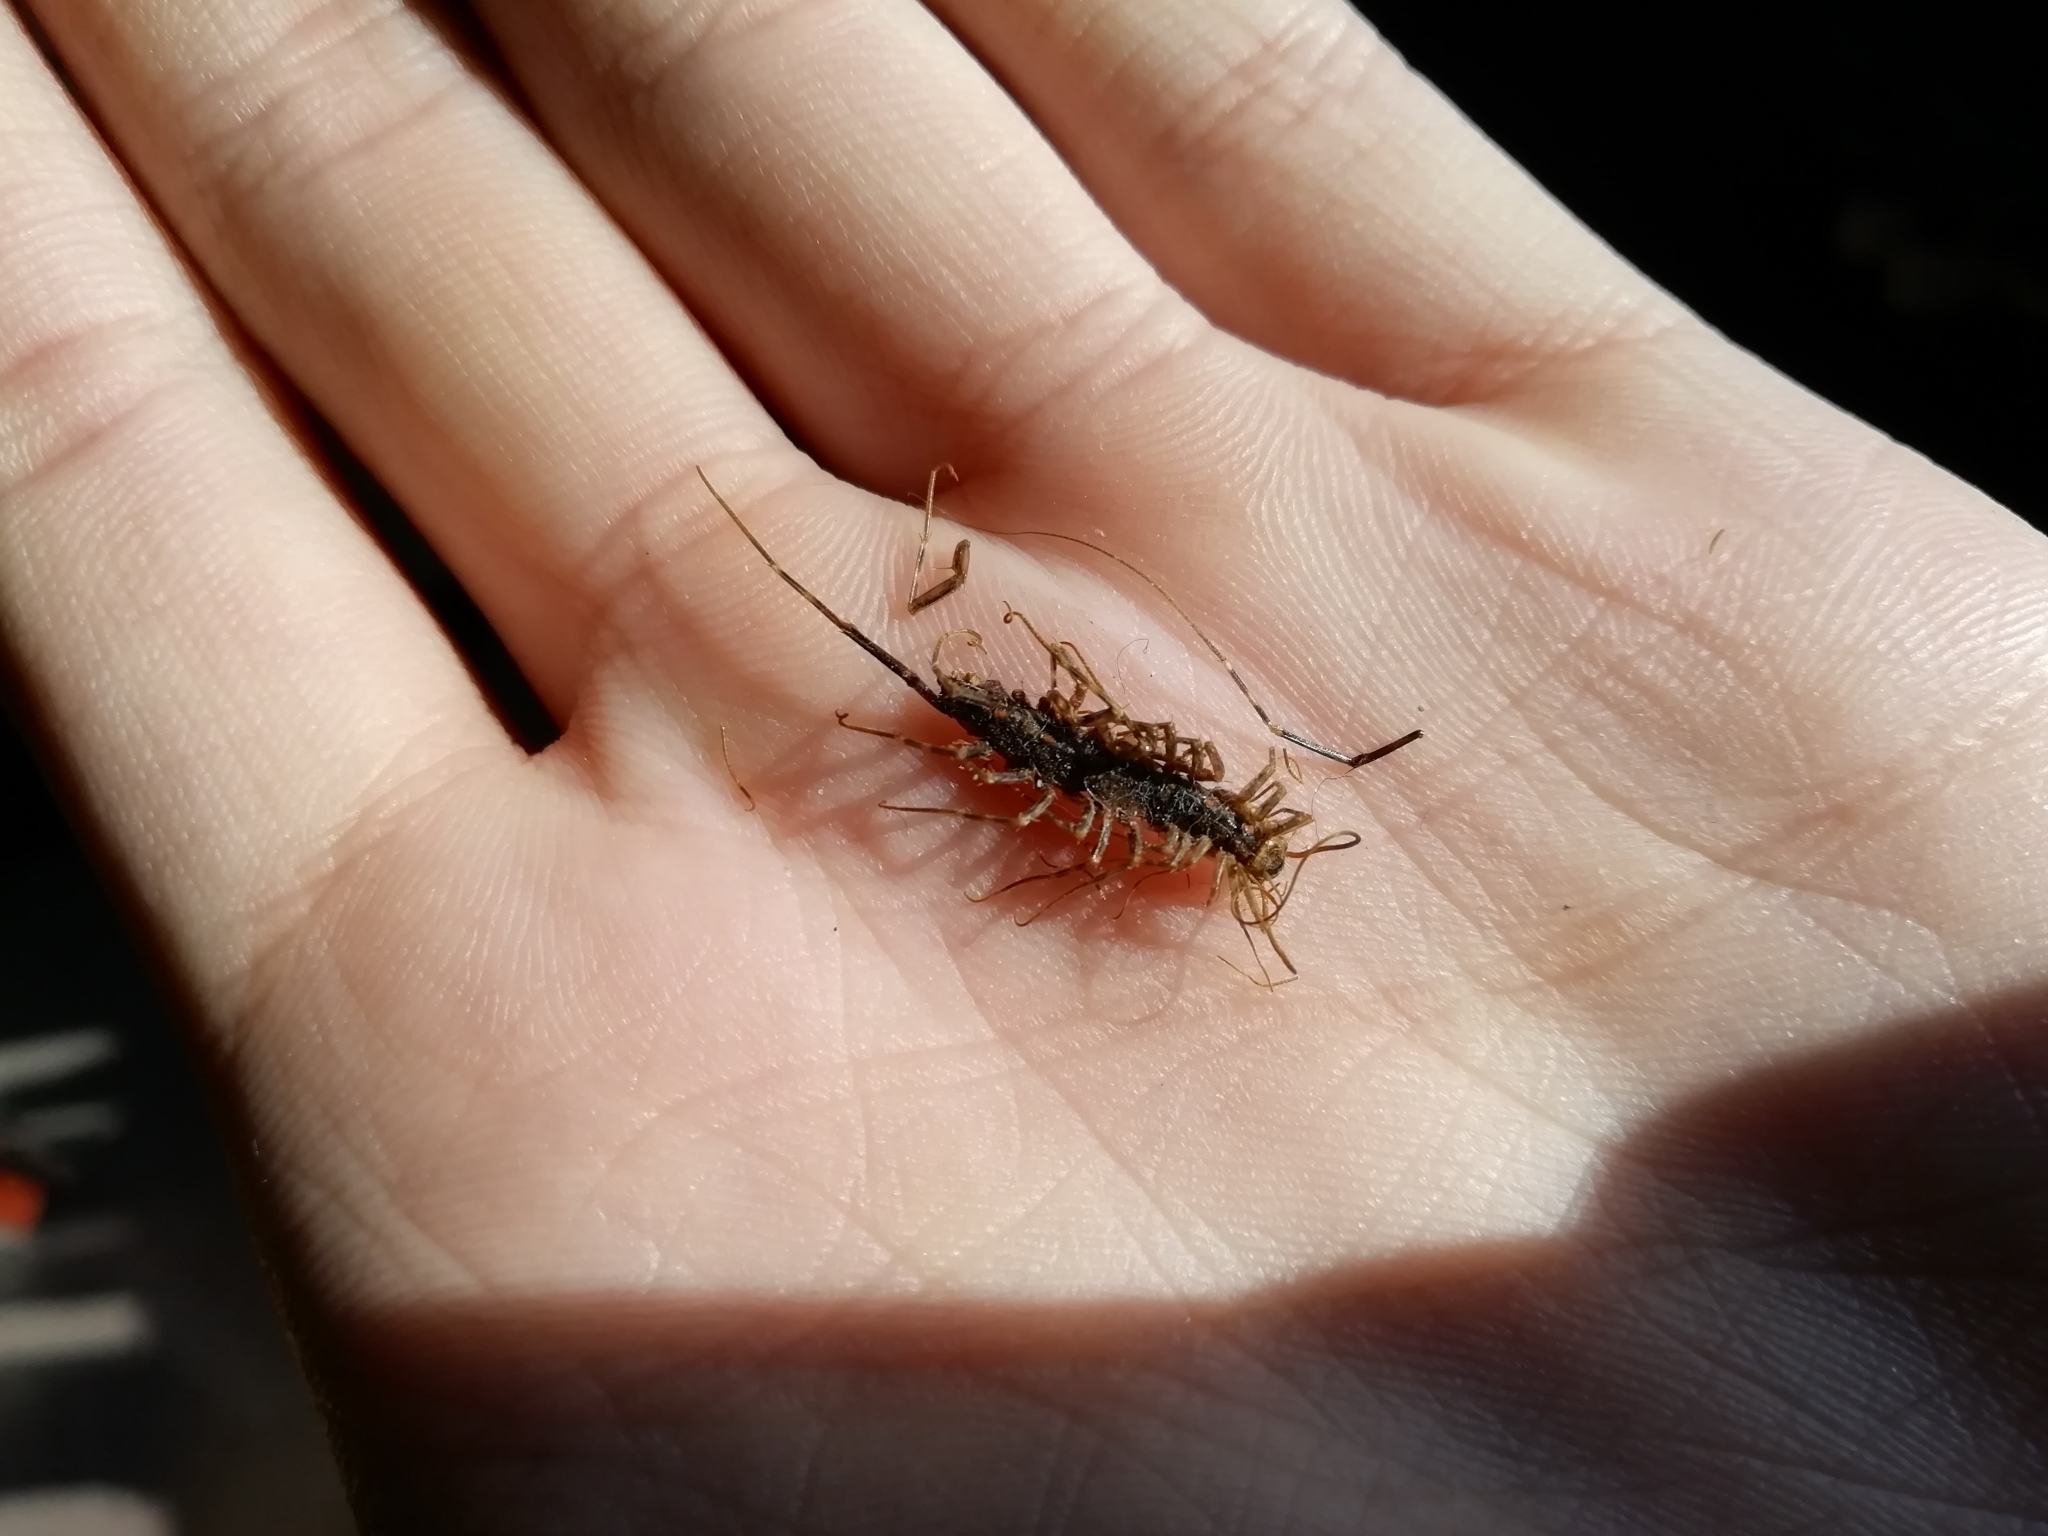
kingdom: Animalia
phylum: Arthropoda
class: Chilopoda
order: Scutigeromorpha
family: Scutigeridae
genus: Scutigera
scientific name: Scutigera coleoptrata
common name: House centipede
